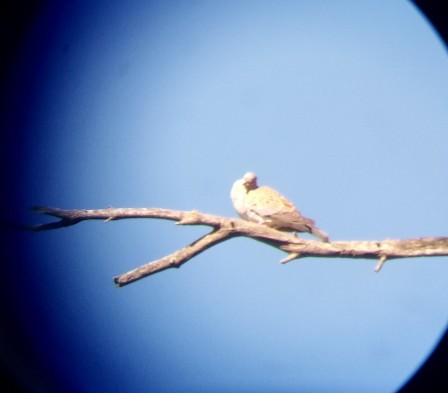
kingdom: Animalia
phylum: Chordata
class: Aves
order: Columbiformes
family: Columbidae
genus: Streptopelia
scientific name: Streptopelia turtur
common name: European turtle dove
